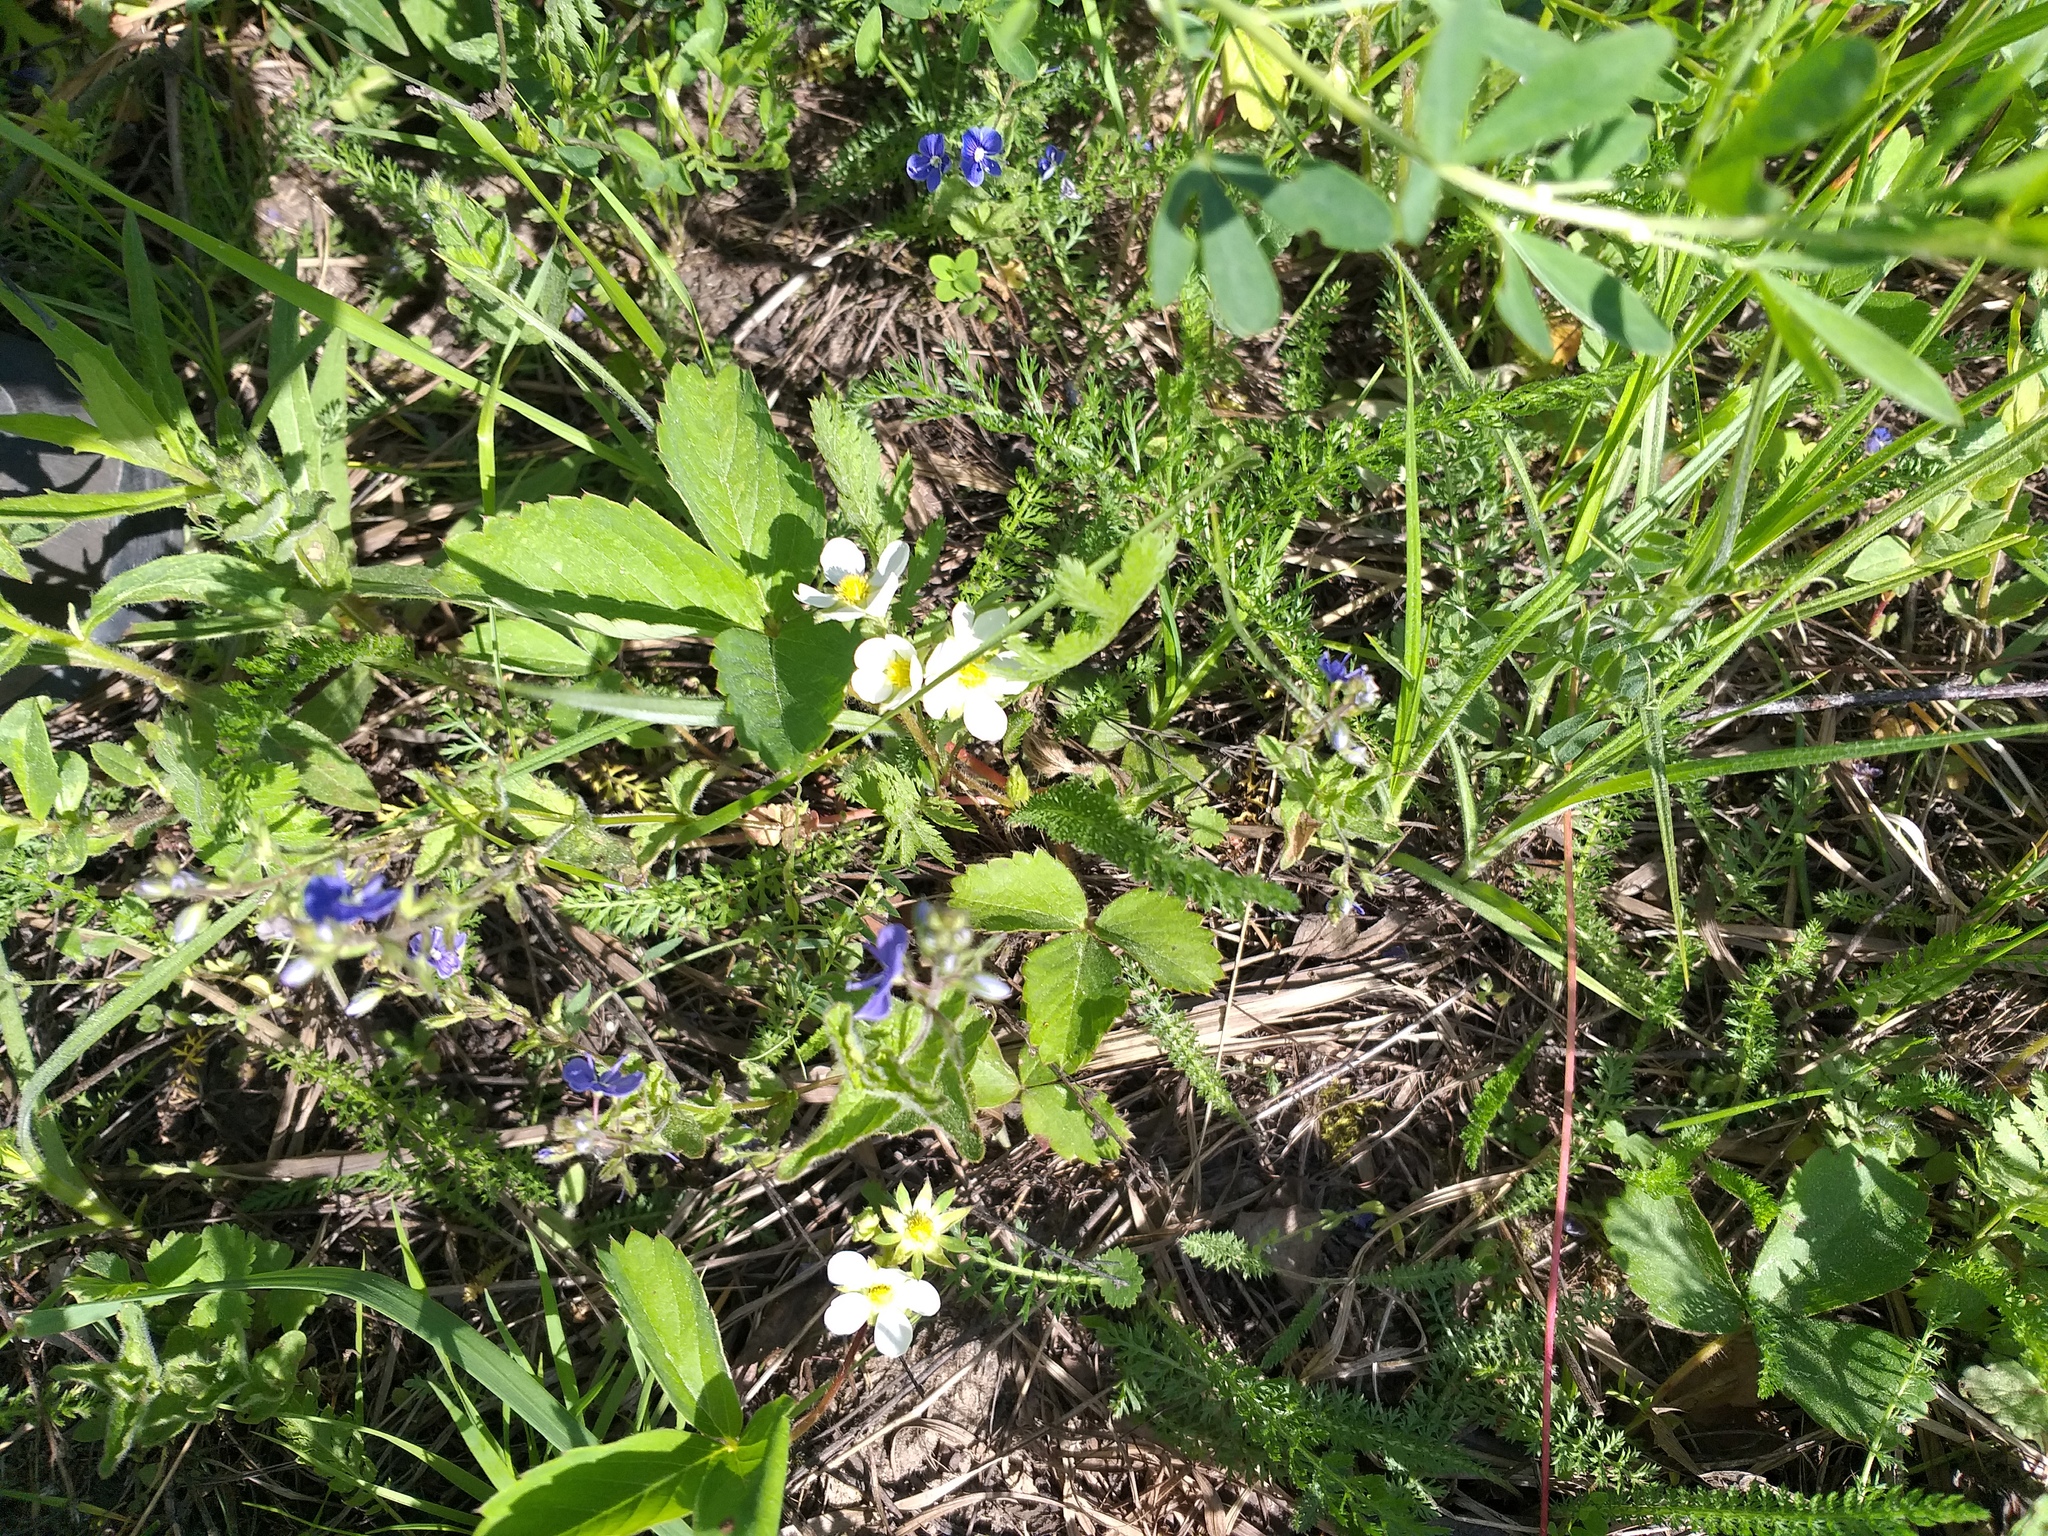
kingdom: Plantae
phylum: Tracheophyta
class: Magnoliopsida
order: Rosales
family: Rosaceae
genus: Fragaria
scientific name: Fragaria ananassa
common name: Garden strawberry
